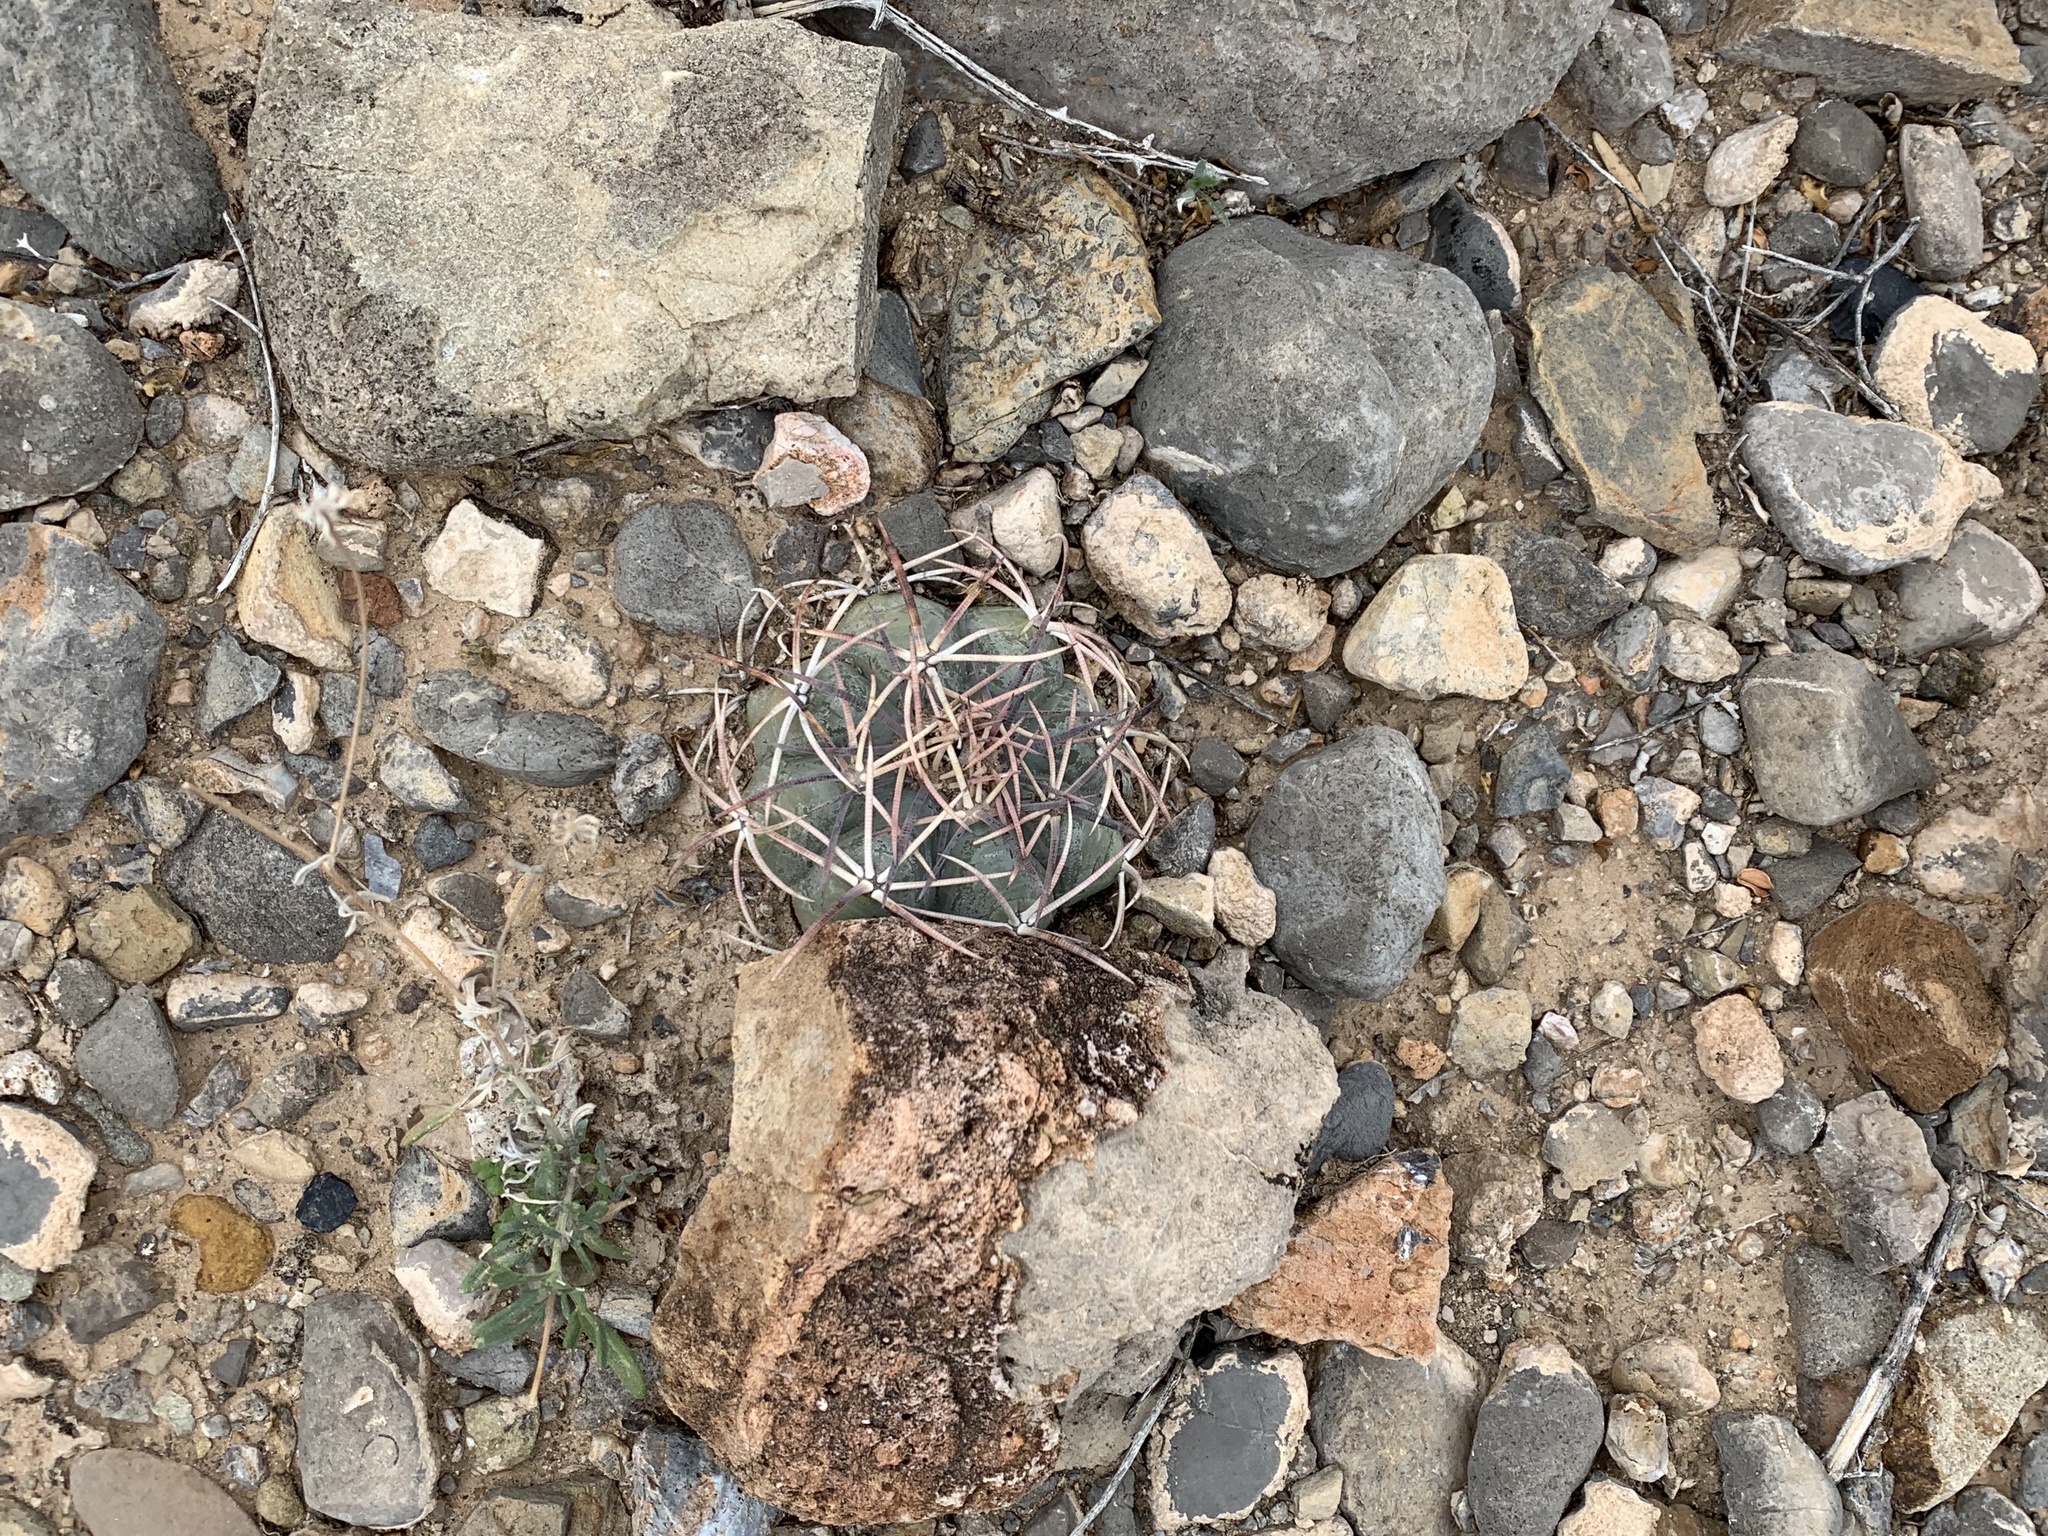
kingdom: Plantae
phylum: Tracheophyta
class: Magnoliopsida
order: Caryophyllales
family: Cactaceae
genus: Echinocactus
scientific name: Echinocactus horizonthalonius
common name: Devilshead
